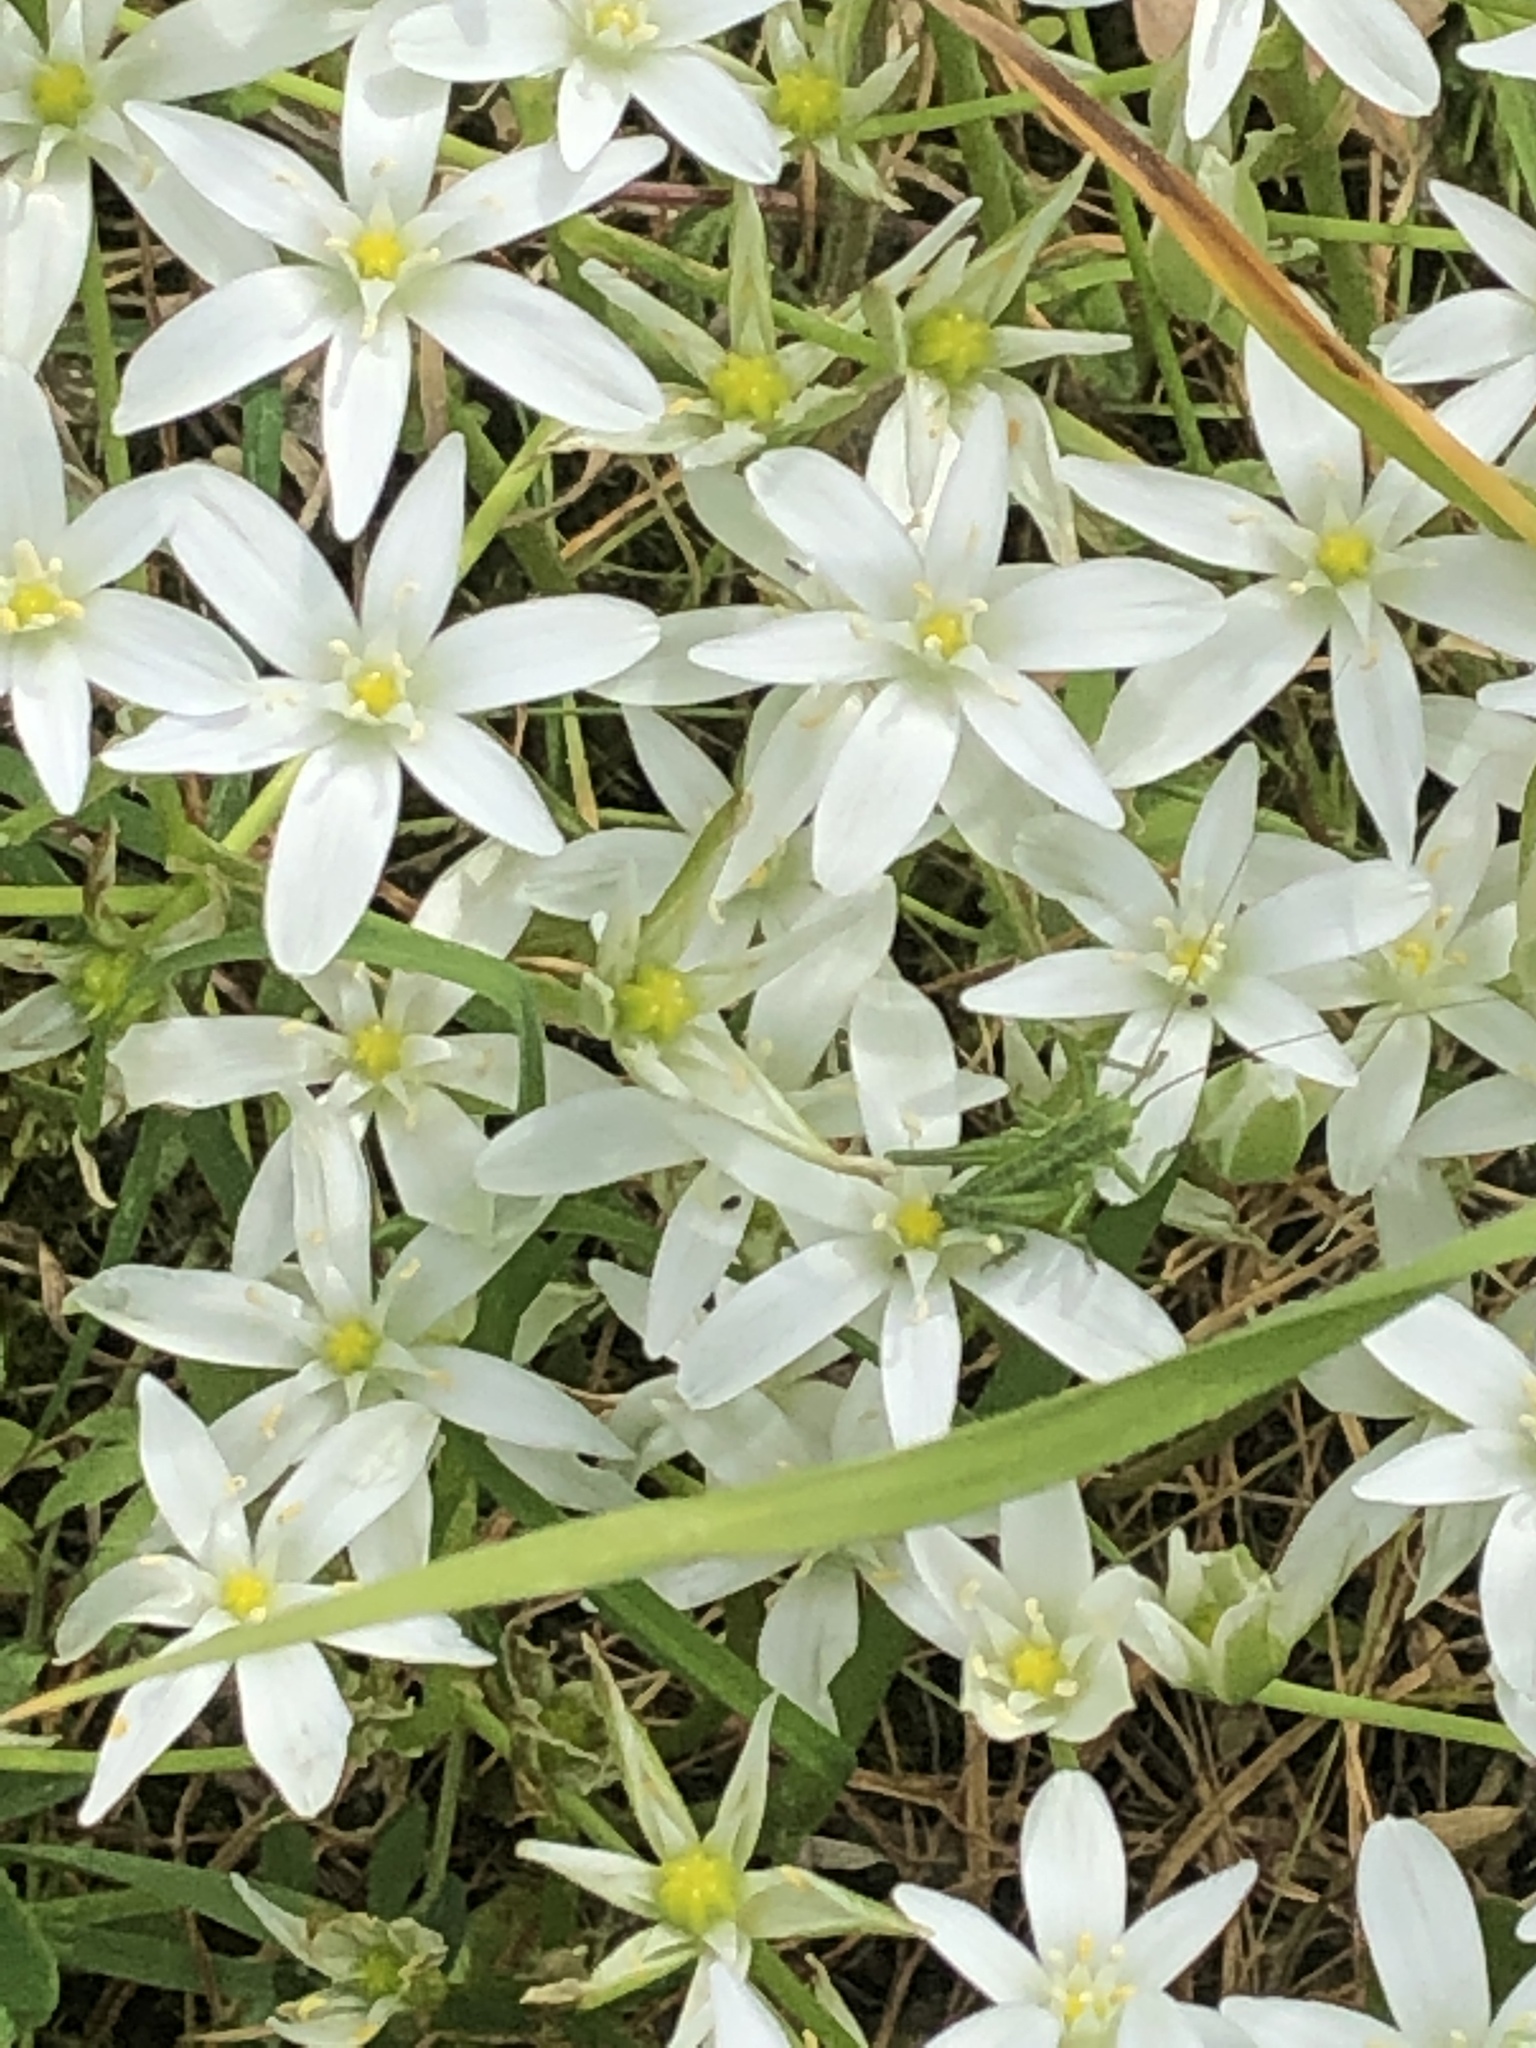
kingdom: Plantae
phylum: Tracheophyta
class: Liliopsida
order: Asparagales
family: Asparagaceae
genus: Ornithogalum
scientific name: Ornithogalum umbellatum
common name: Garden star-of-bethlehem
